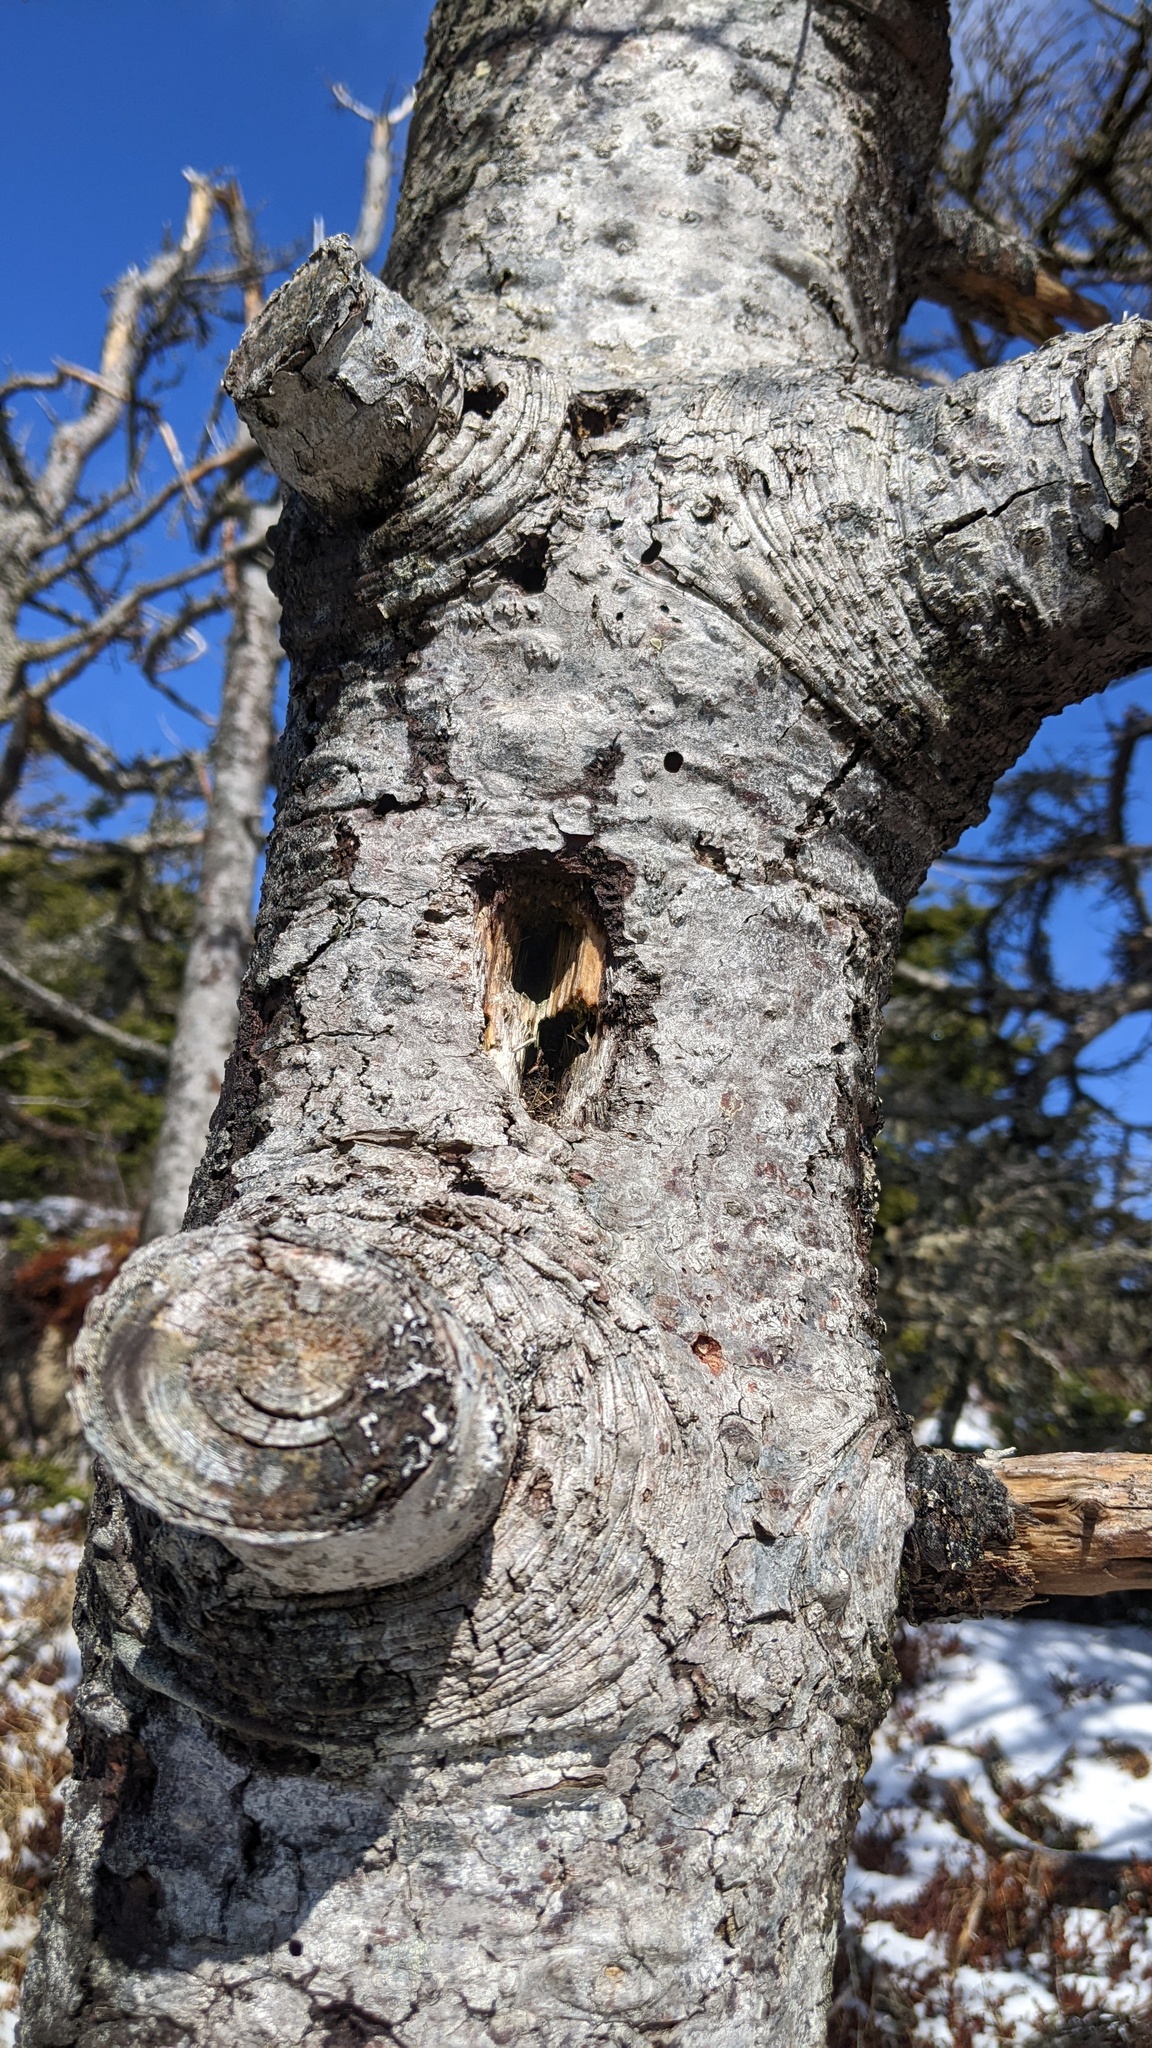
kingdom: Animalia
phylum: Chordata
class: Aves
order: Piciformes
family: Picidae
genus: Dryocopus
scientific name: Dryocopus pileatus
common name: Pileated woodpecker
